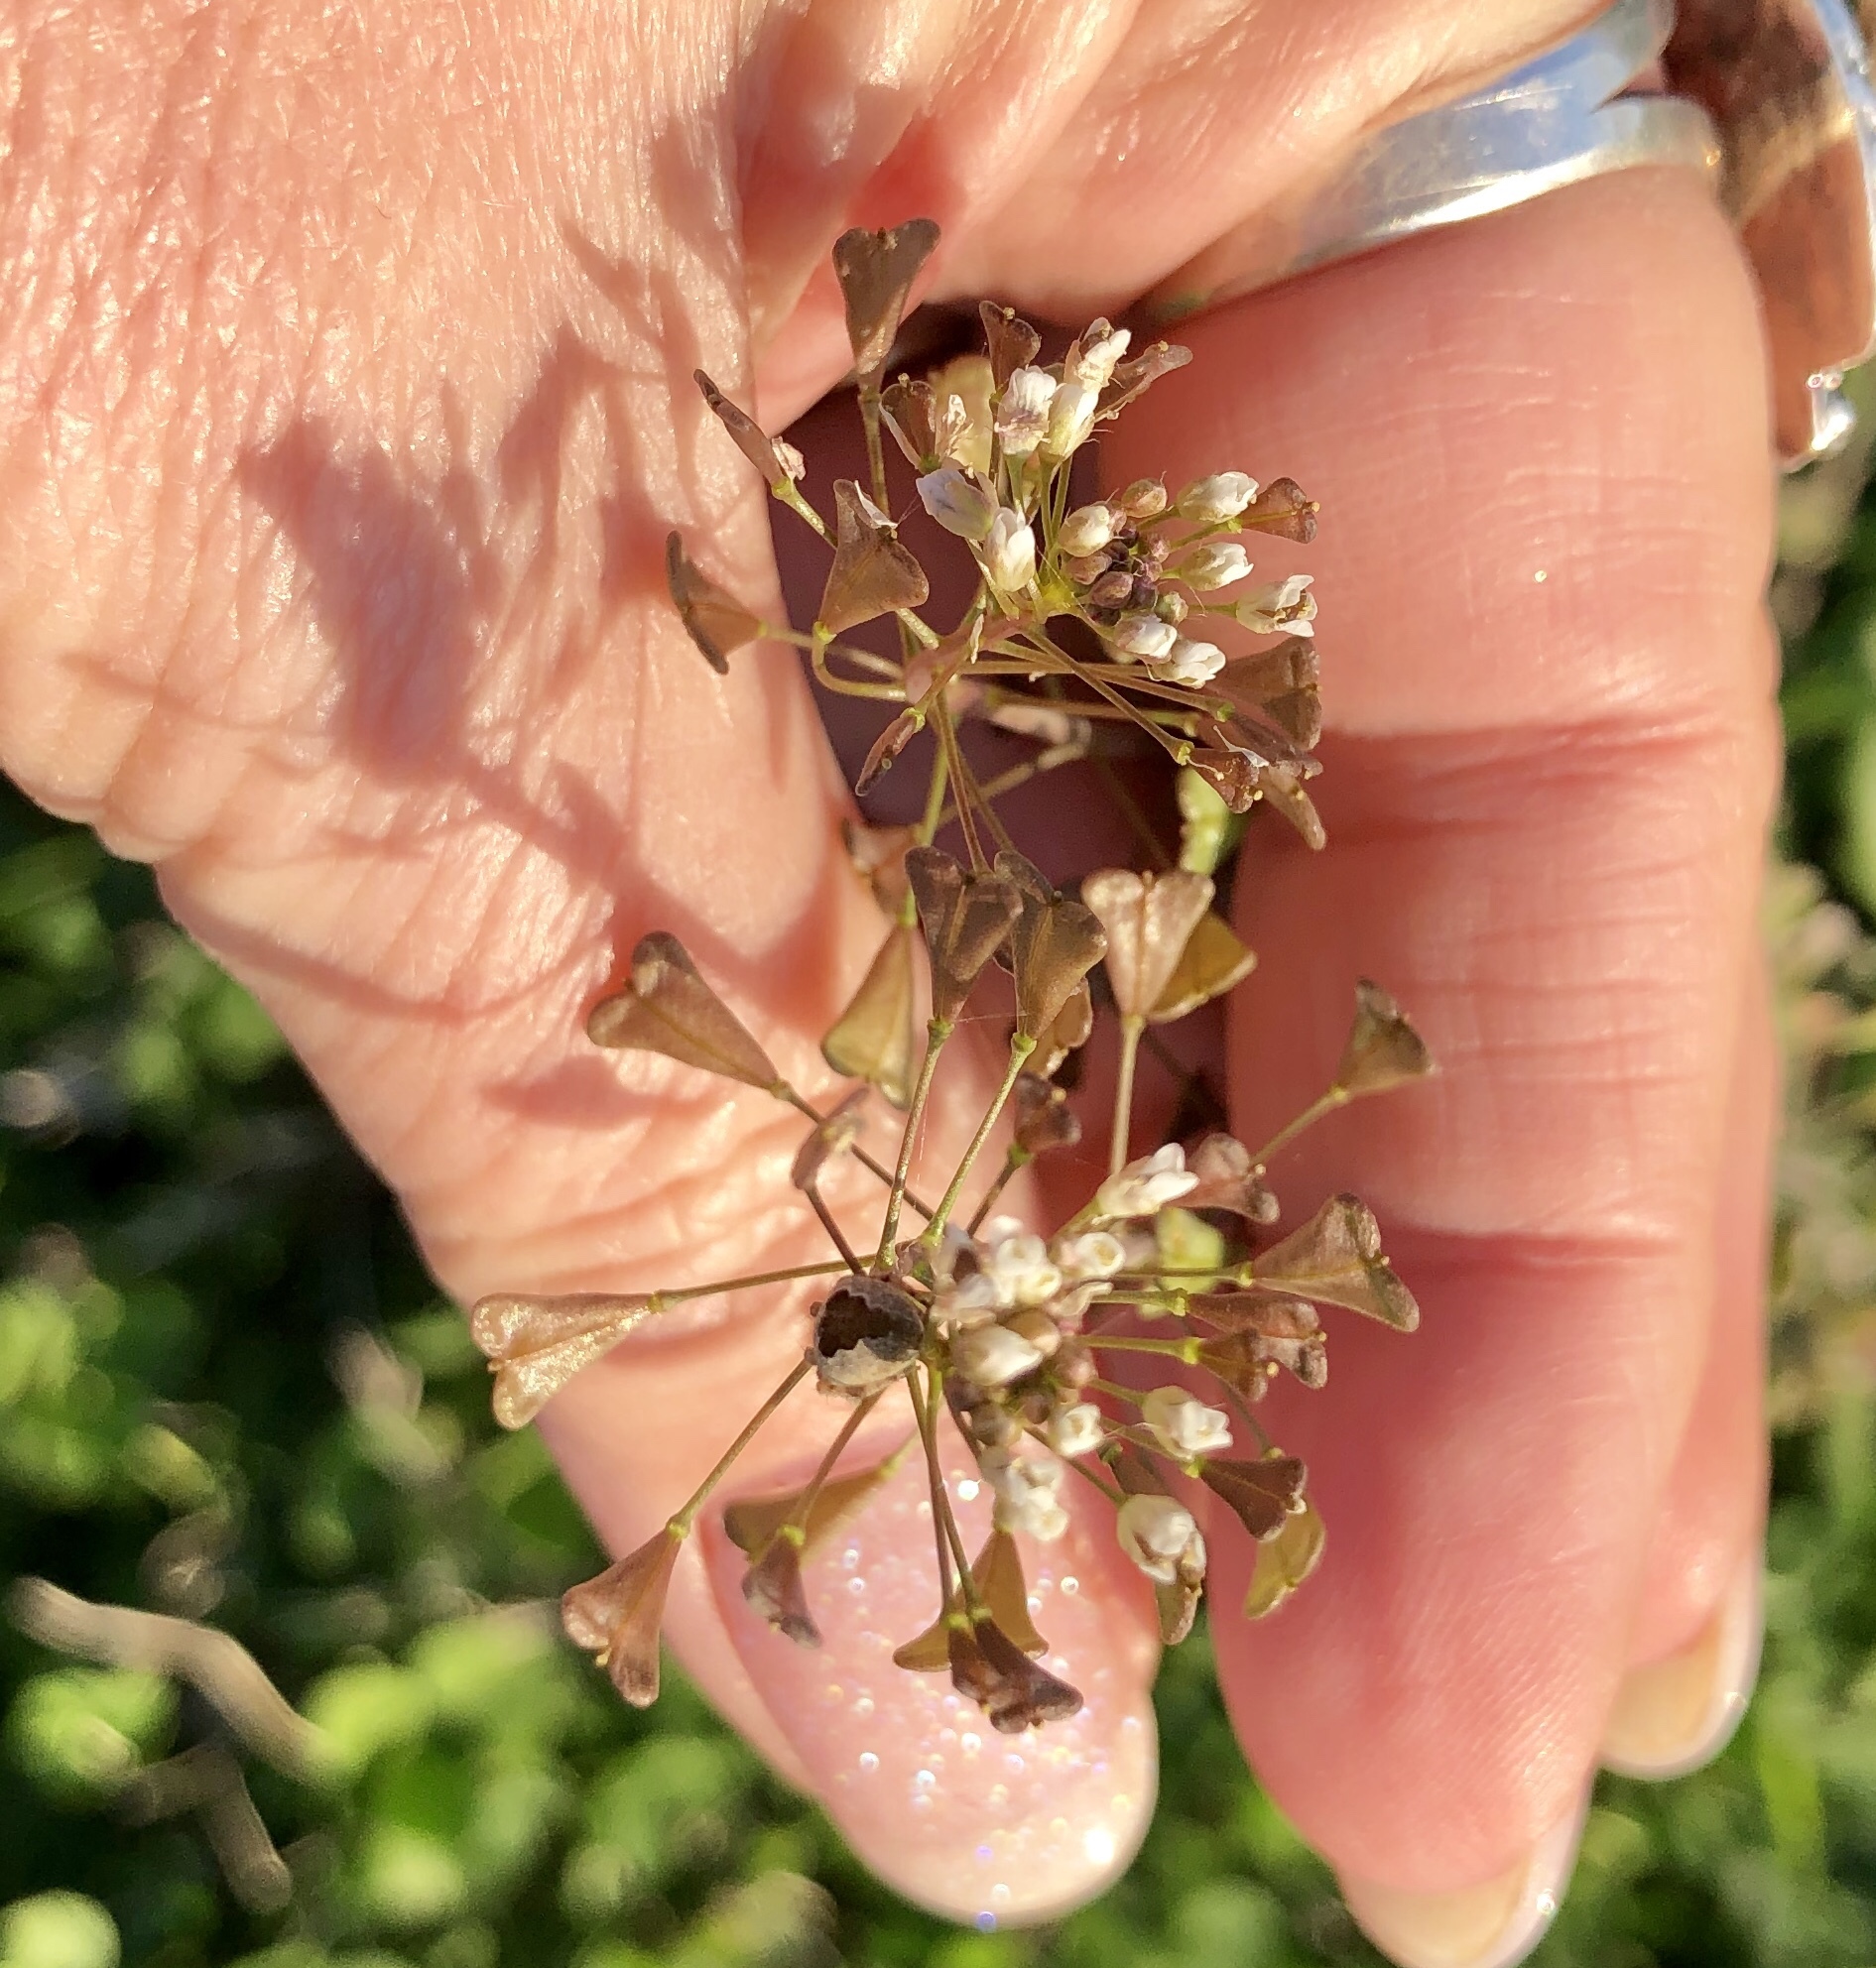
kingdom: Plantae
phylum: Tracheophyta
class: Magnoliopsida
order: Brassicales
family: Brassicaceae
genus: Capsella
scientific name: Capsella bursa-pastoris
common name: Shepherd's purse
